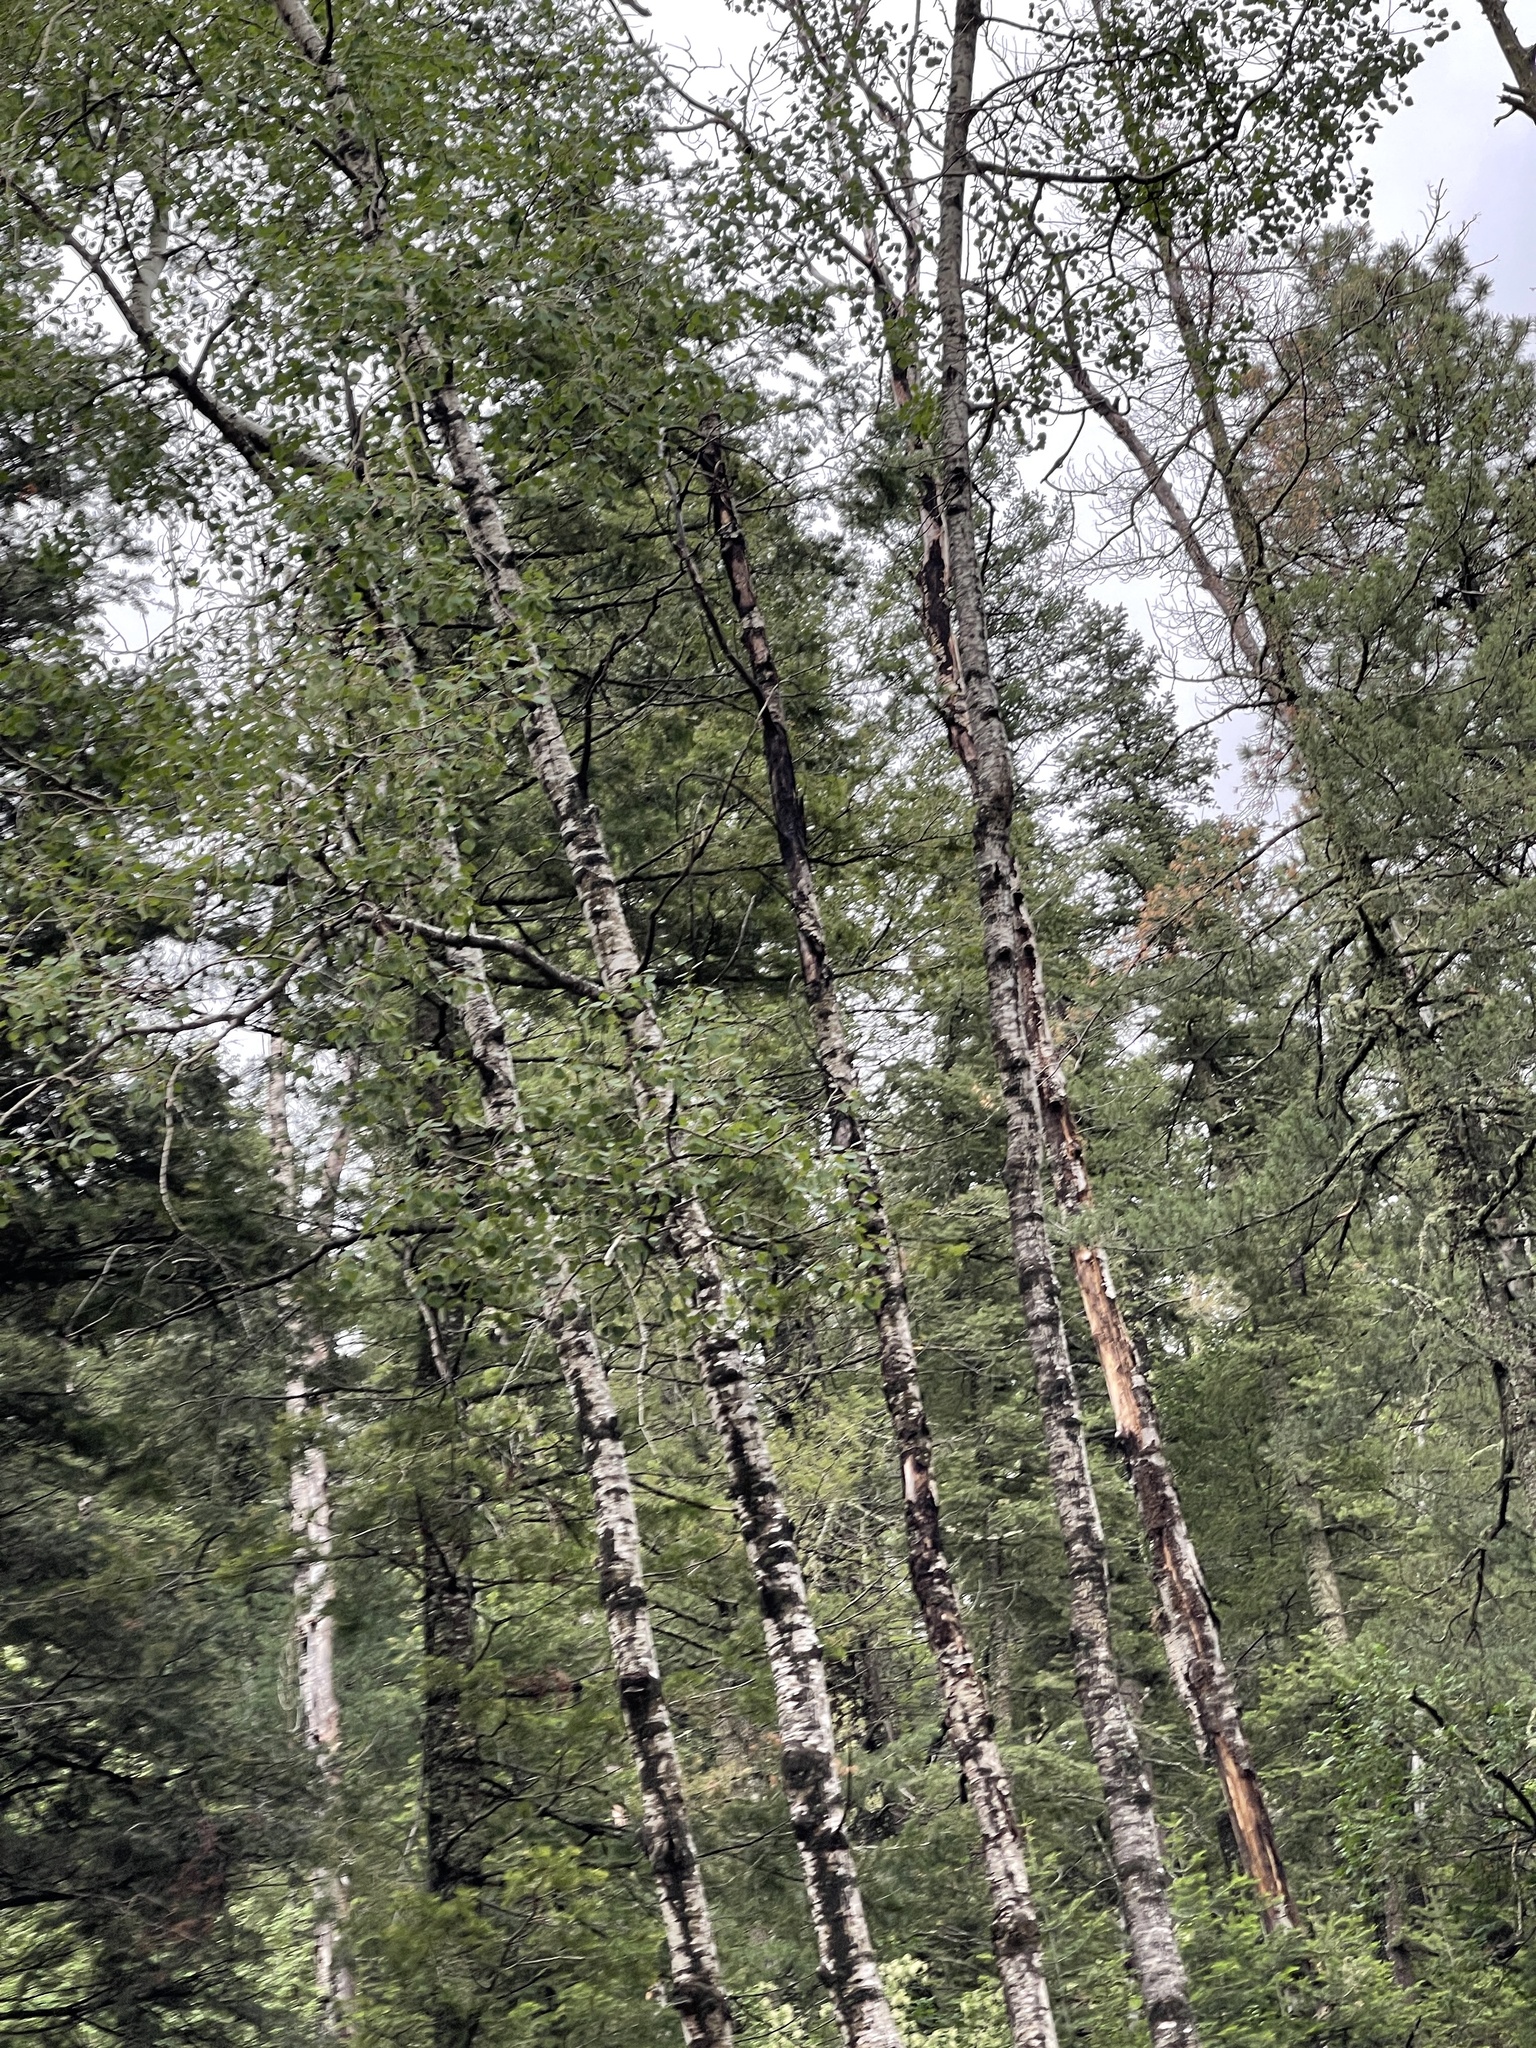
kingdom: Plantae
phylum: Tracheophyta
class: Magnoliopsida
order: Malpighiales
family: Salicaceae
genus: Populus
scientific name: Populus tremuloides
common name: Quaking aspen
